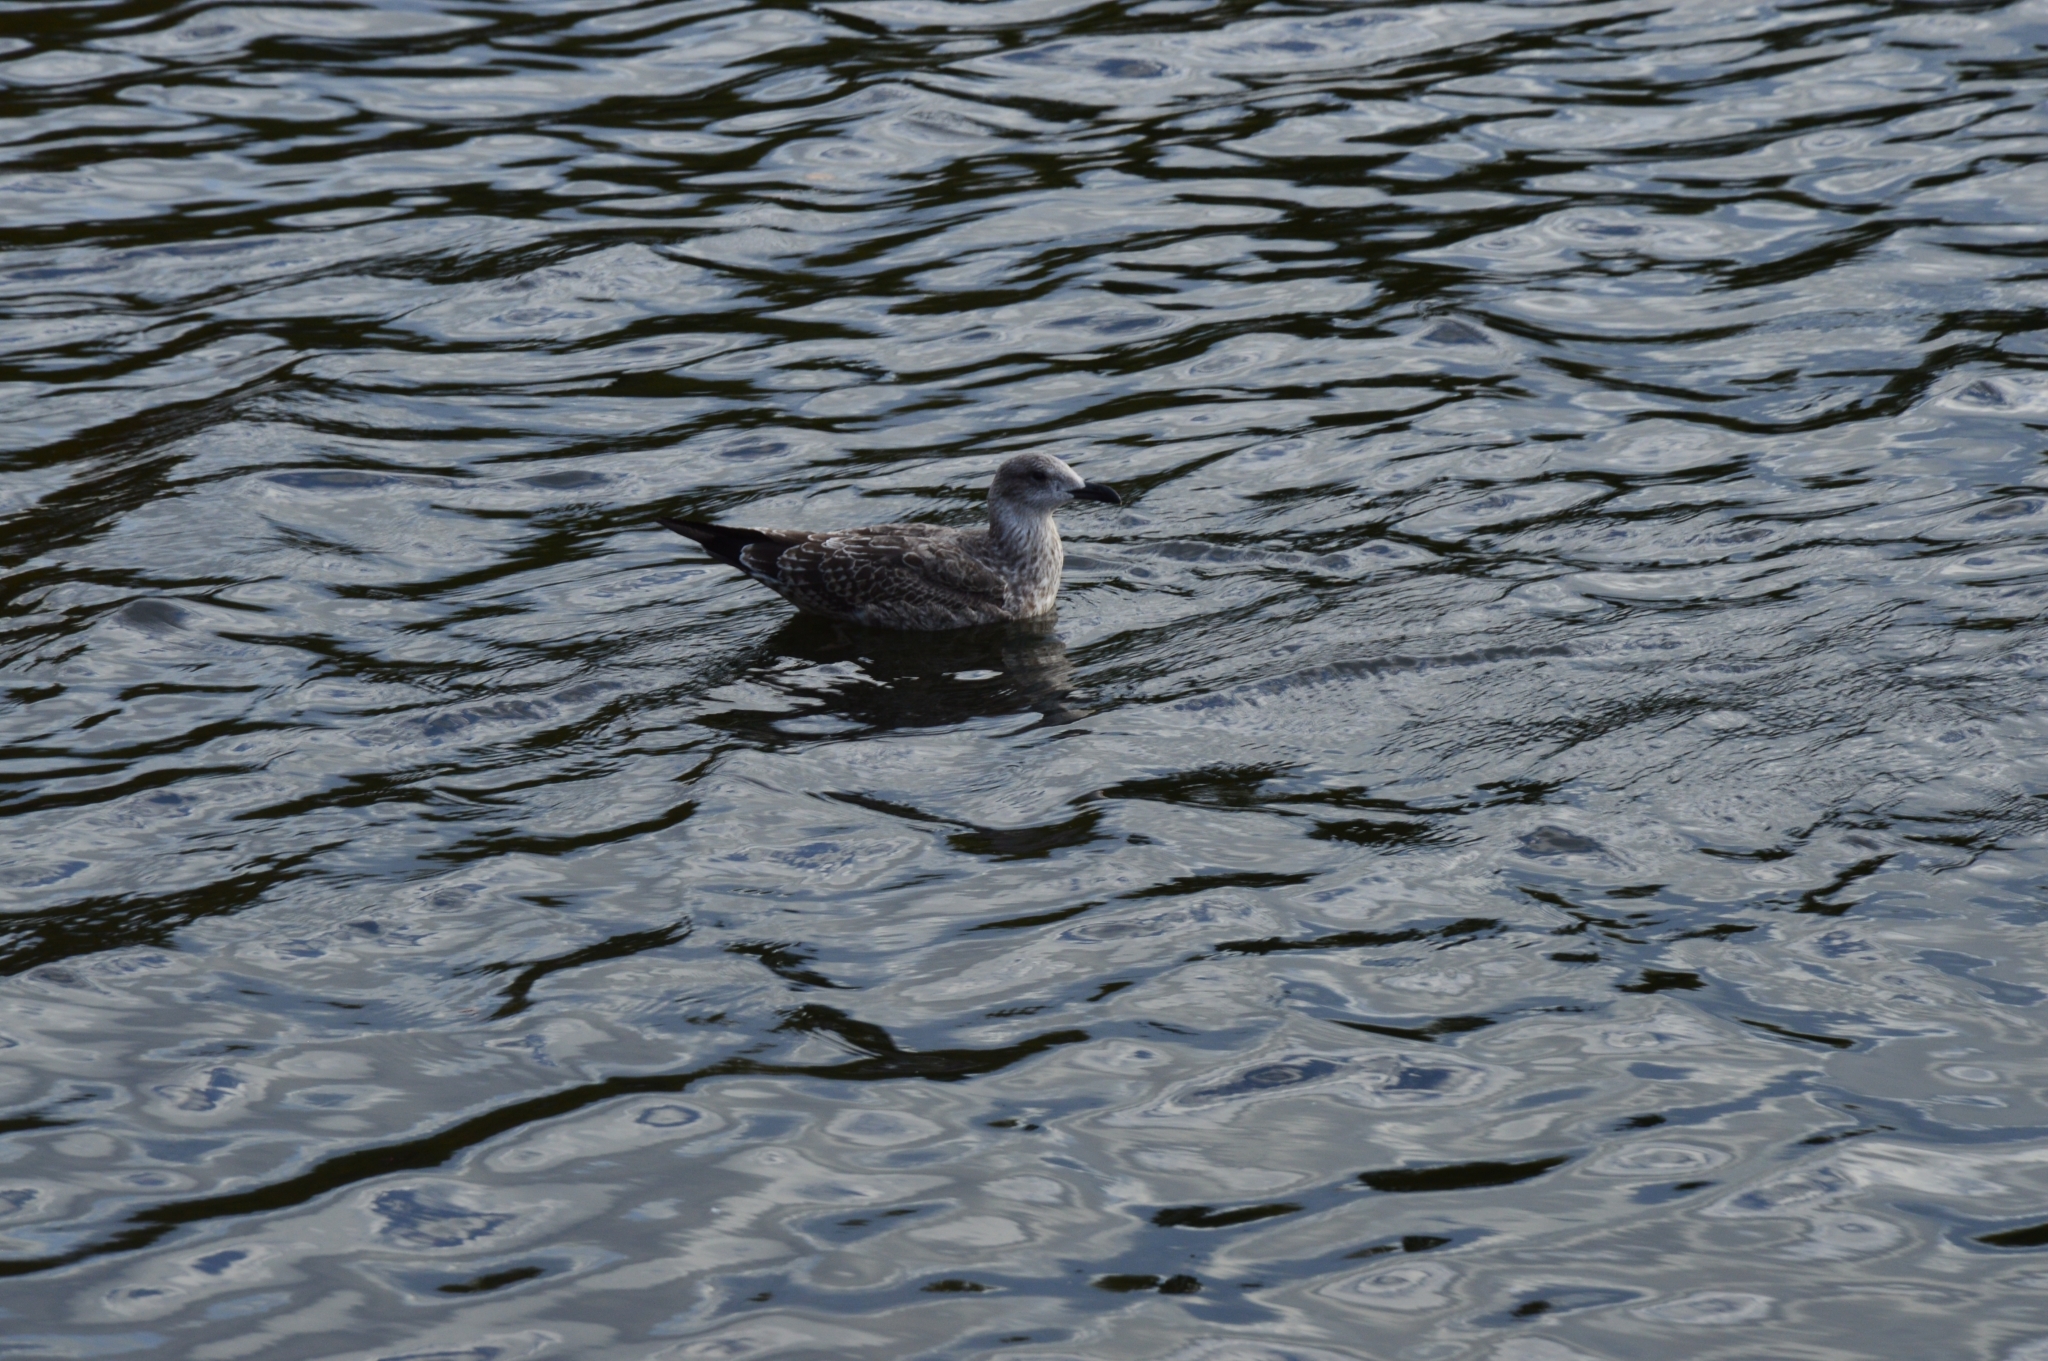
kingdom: Animalia
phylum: Chordata
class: Aves
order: Charadriiformes
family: Laridae
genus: Larus
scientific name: Larus fuscus
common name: Lesser black-backed gull
